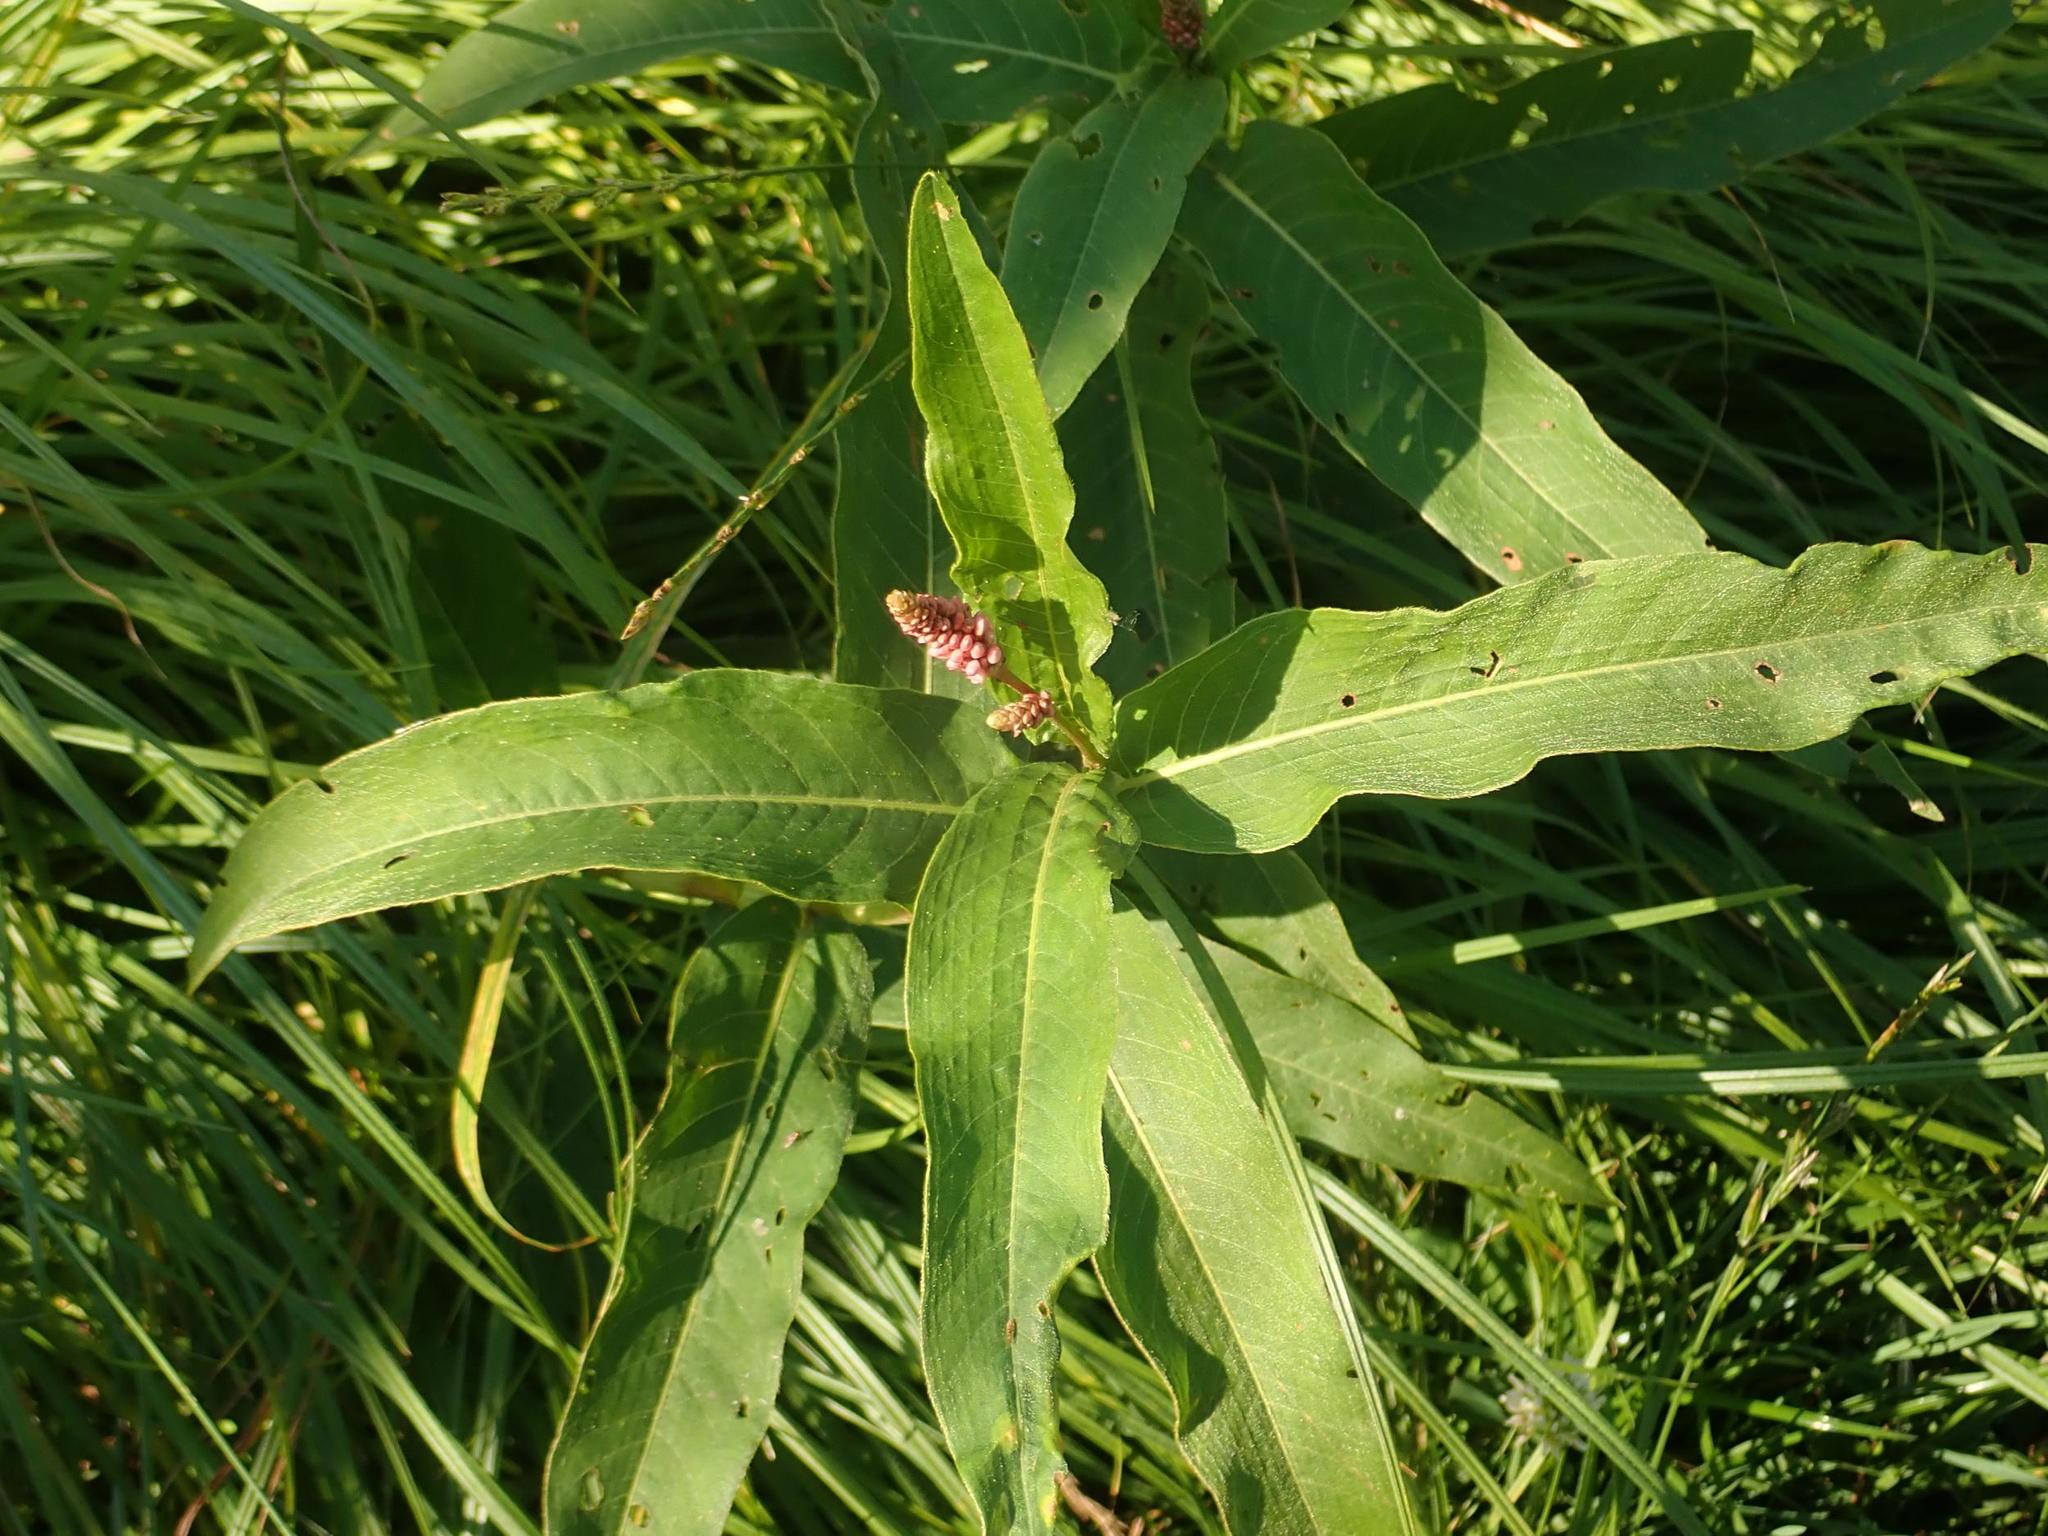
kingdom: Plantae
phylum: Tracheophyta
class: Magnoliopsida
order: Caryophyllales
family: Polygonaceae
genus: Persicaria
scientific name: Persicaria amphibia
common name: Amphibious bistort
